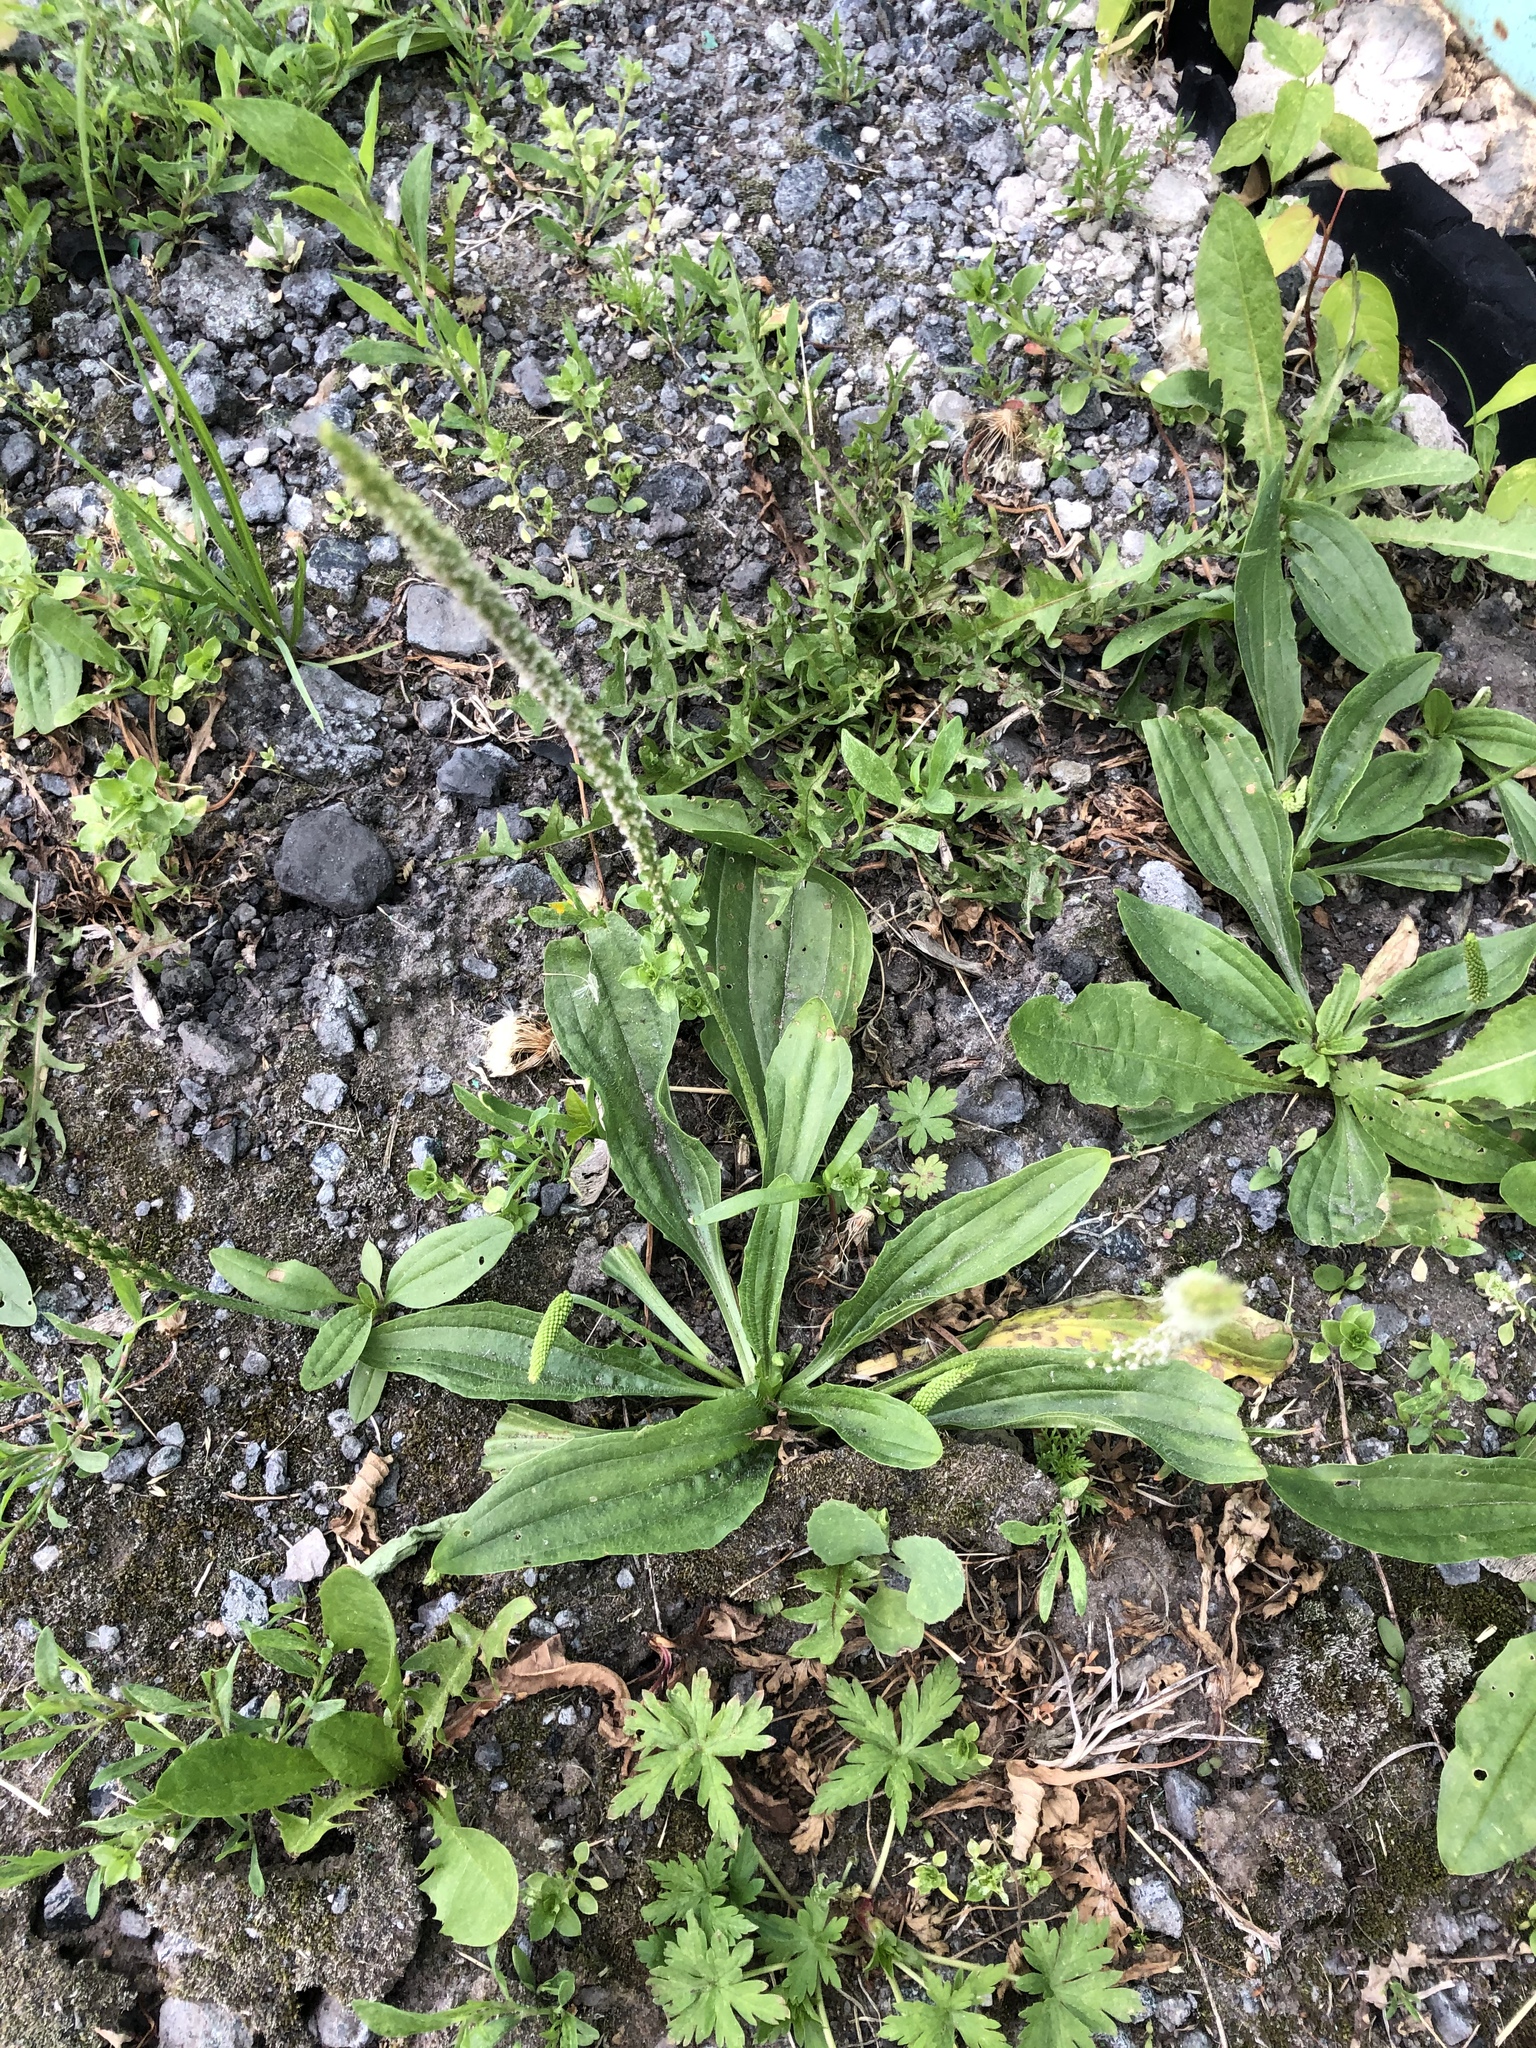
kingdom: Plantae
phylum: Tracheophyta
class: Magnoliopsida
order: Lamiales
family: Plantaginaceae
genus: Plantago
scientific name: Plantago depressa
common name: Depressed plantain
